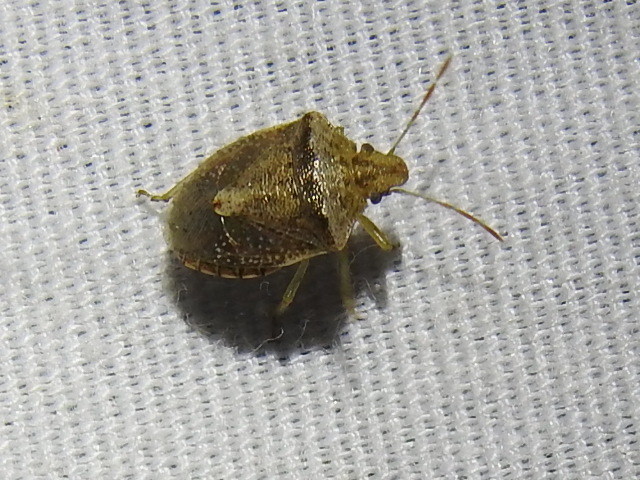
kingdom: Animalia
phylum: Arthropoda
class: Insecta
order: Hemiptera
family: Pentatomidae
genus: Cyptocephala
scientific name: Cyptocephala antiguensis
